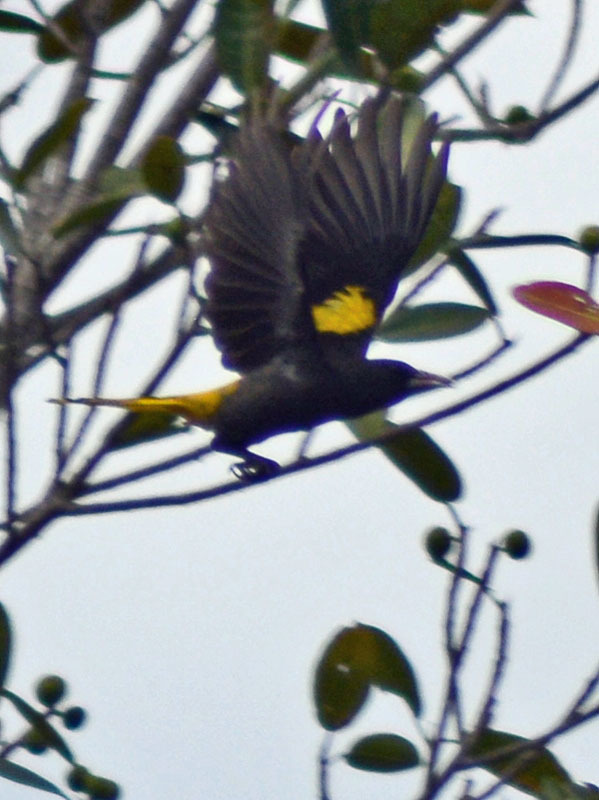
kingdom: Animalia
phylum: Chordata
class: Aves
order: Passeriformes
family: Icteridae
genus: Cacicus
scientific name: Cacicus melanicterus
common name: Yellow-winged cacique
